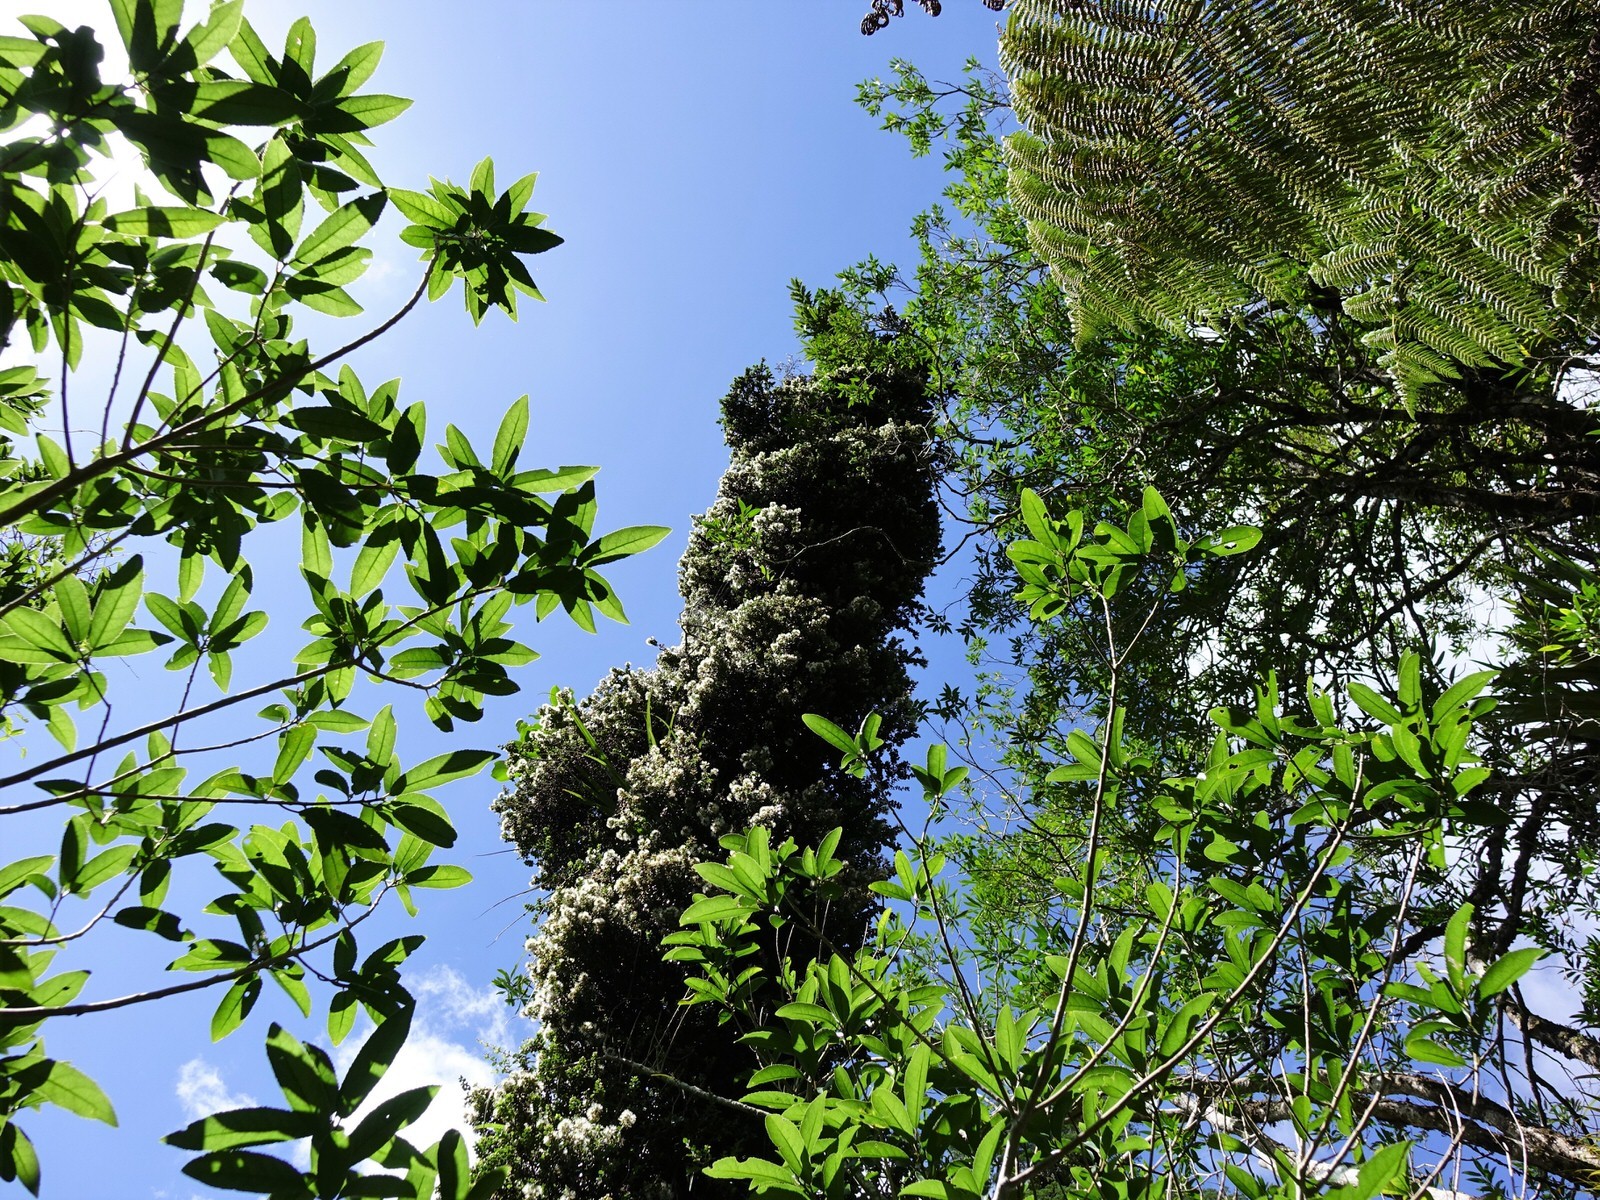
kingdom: Plantae
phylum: Tracheophyta
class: Magnoliopsida
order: Myrtales
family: Myrtaceae
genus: Metrosideros
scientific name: Metrosideros perforata
